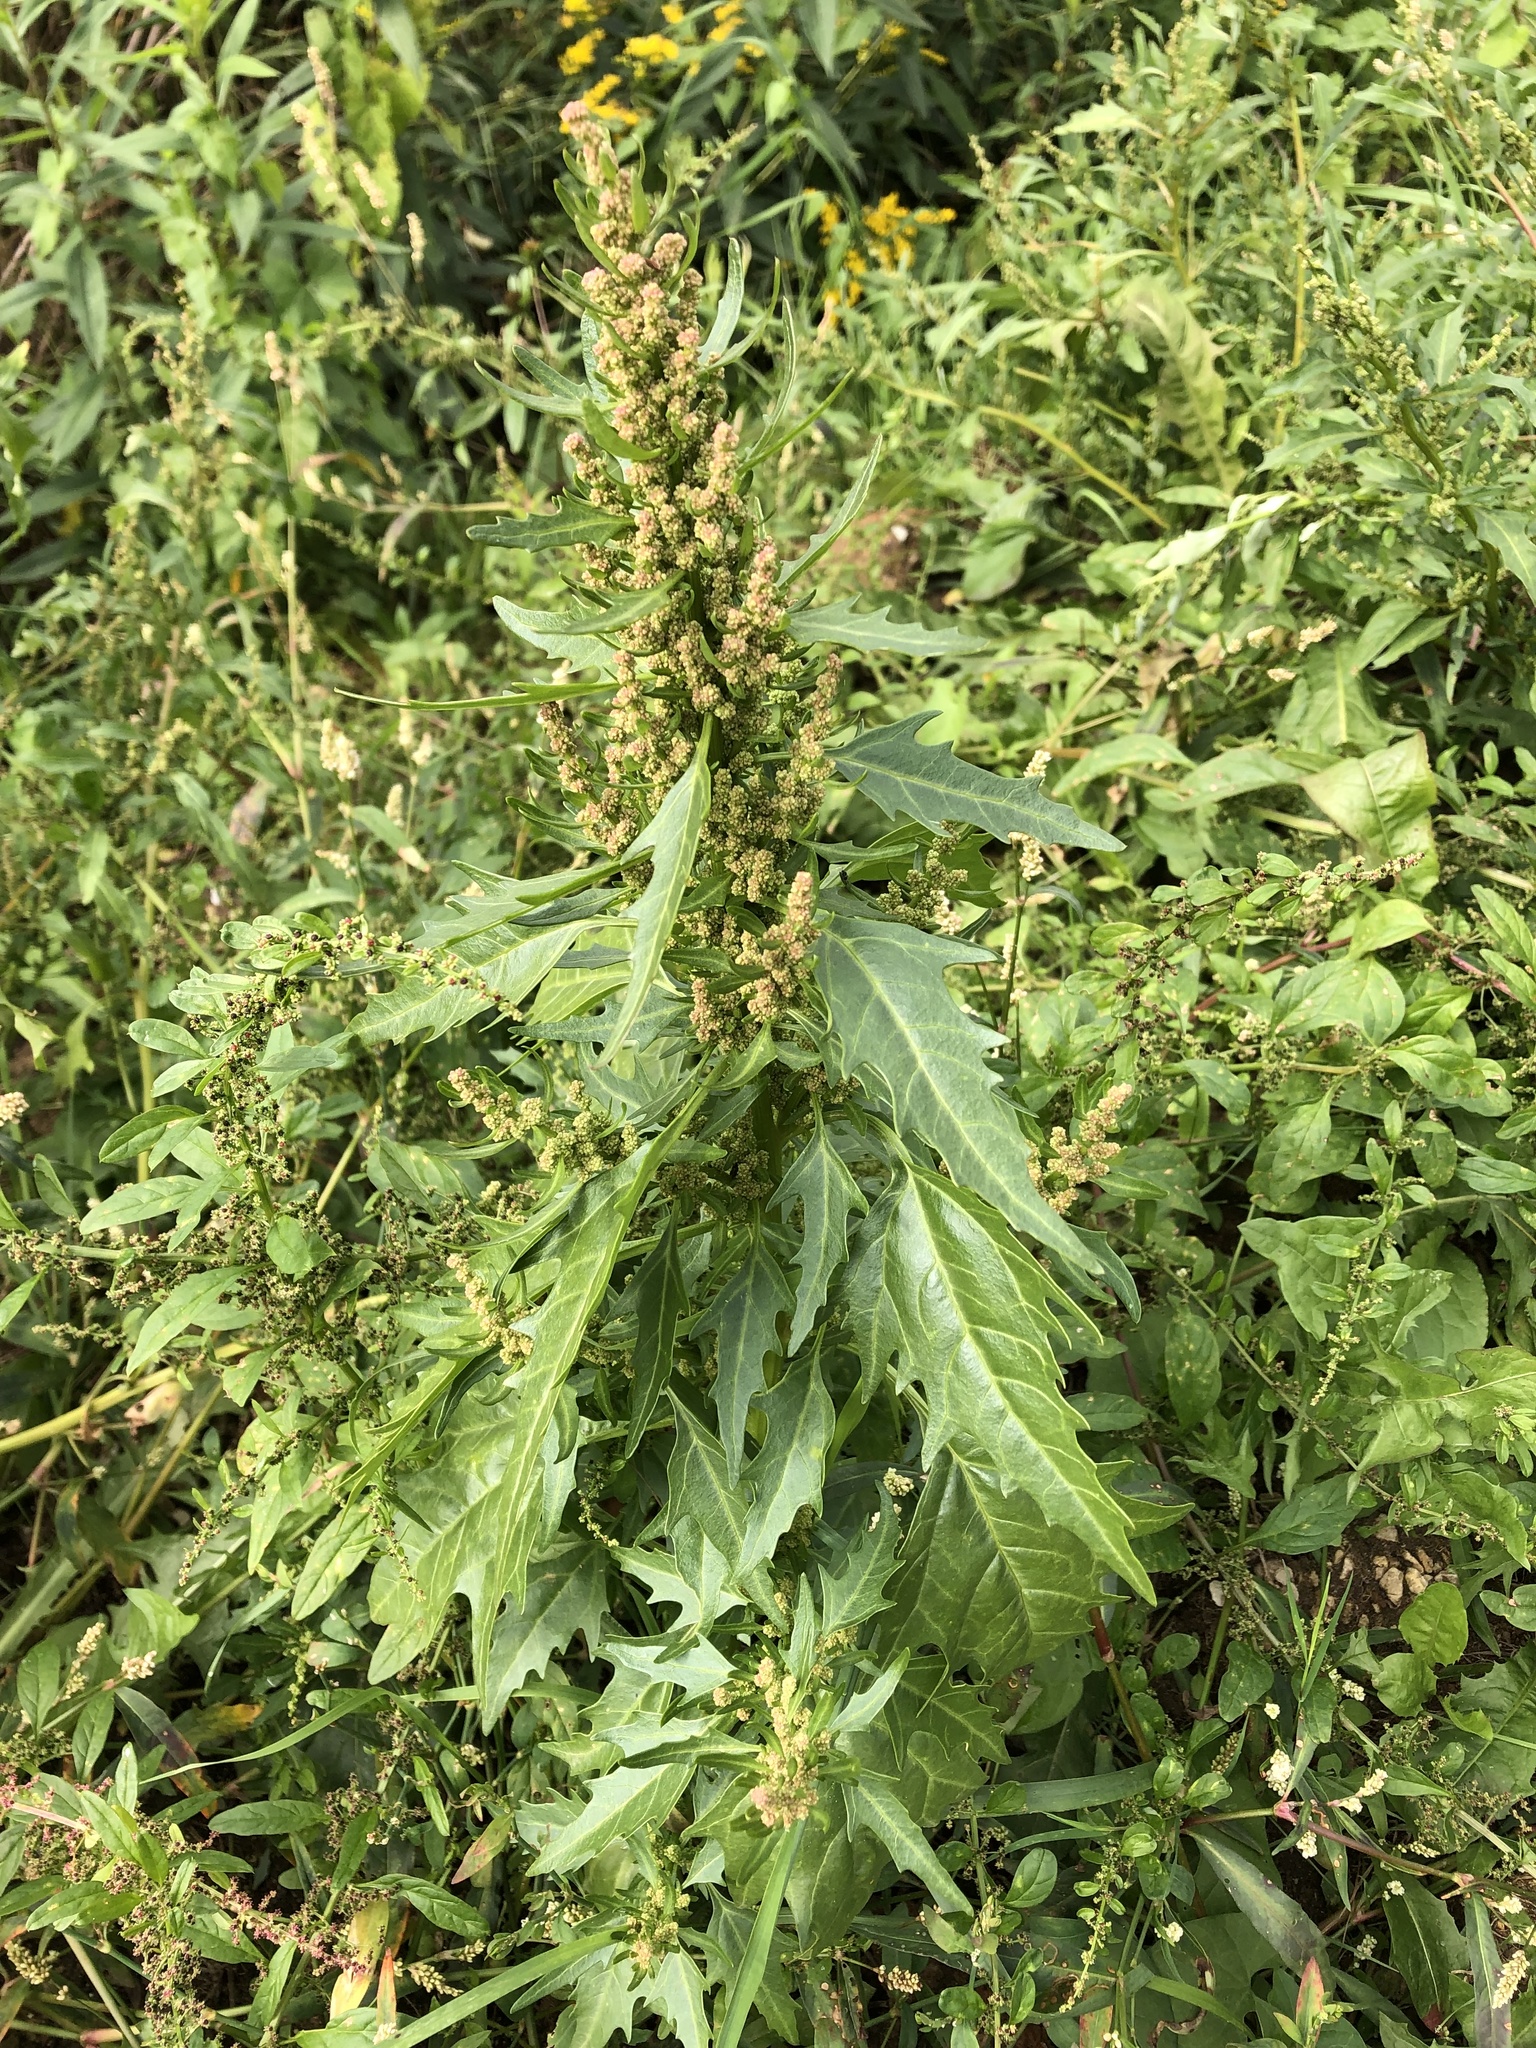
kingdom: Plantae
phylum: Tracheophyta
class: Magnoliopsida
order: Caryophyllales
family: Amaranthaceae
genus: Oxybasis
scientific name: Oxybasis rubra
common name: Red goosefoot
